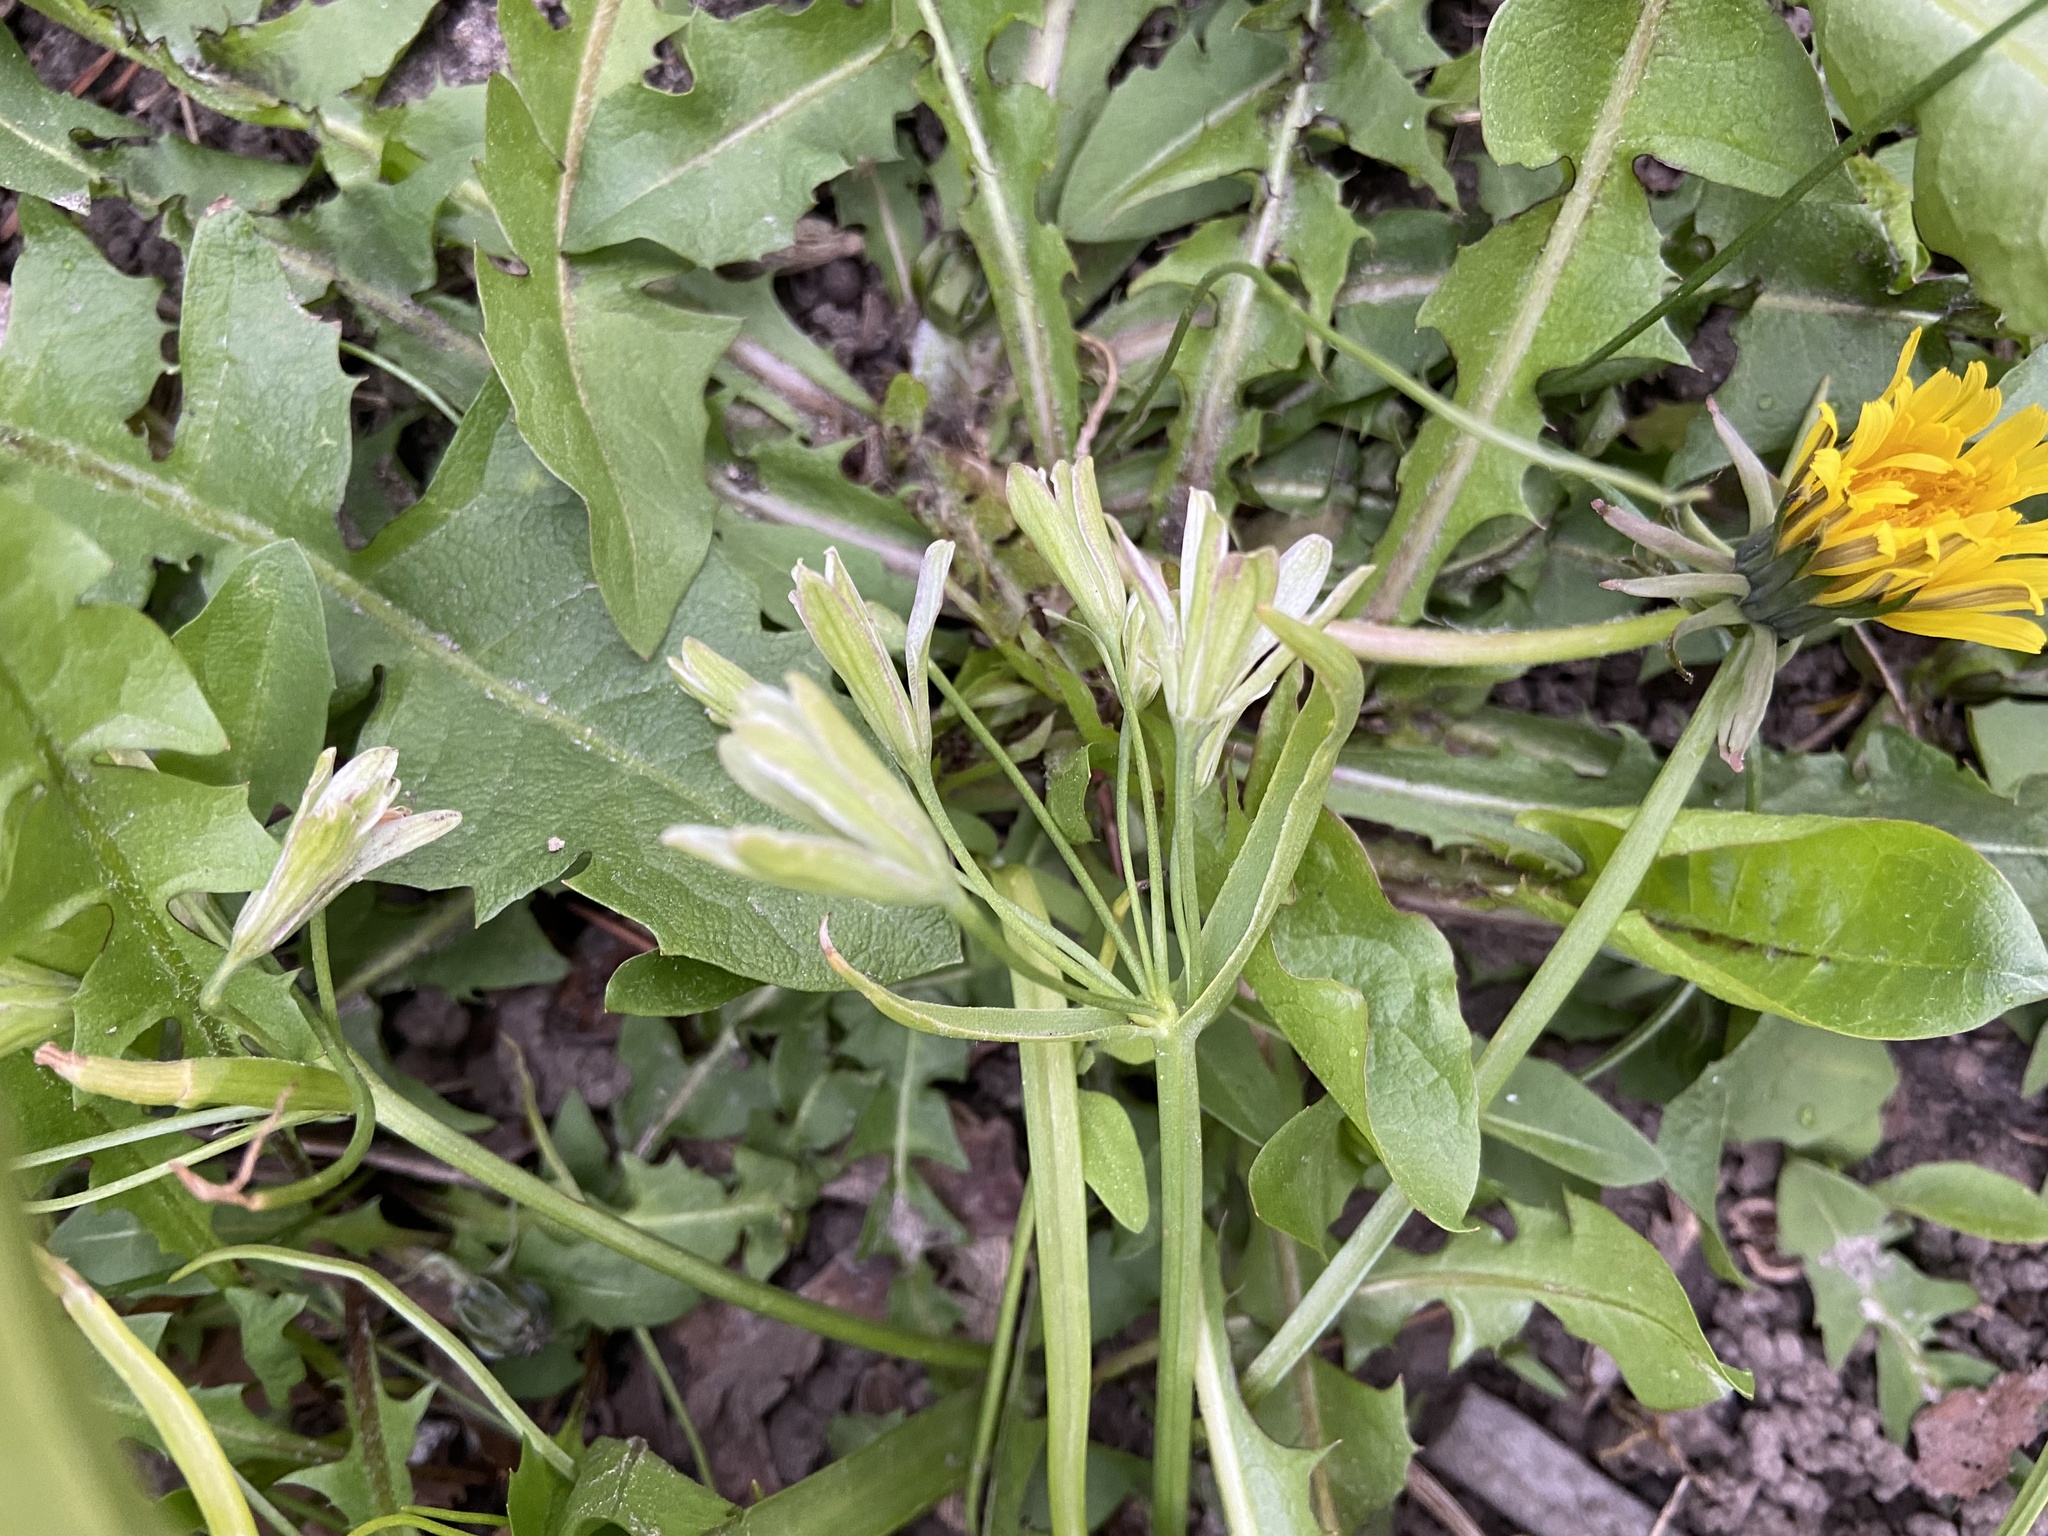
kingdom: Plantae
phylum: Tracheophyta
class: Liliopsida
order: Liliales
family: Liliaceae
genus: Gagea
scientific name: Gagea lutea
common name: Yellow star-of-bethlehem
